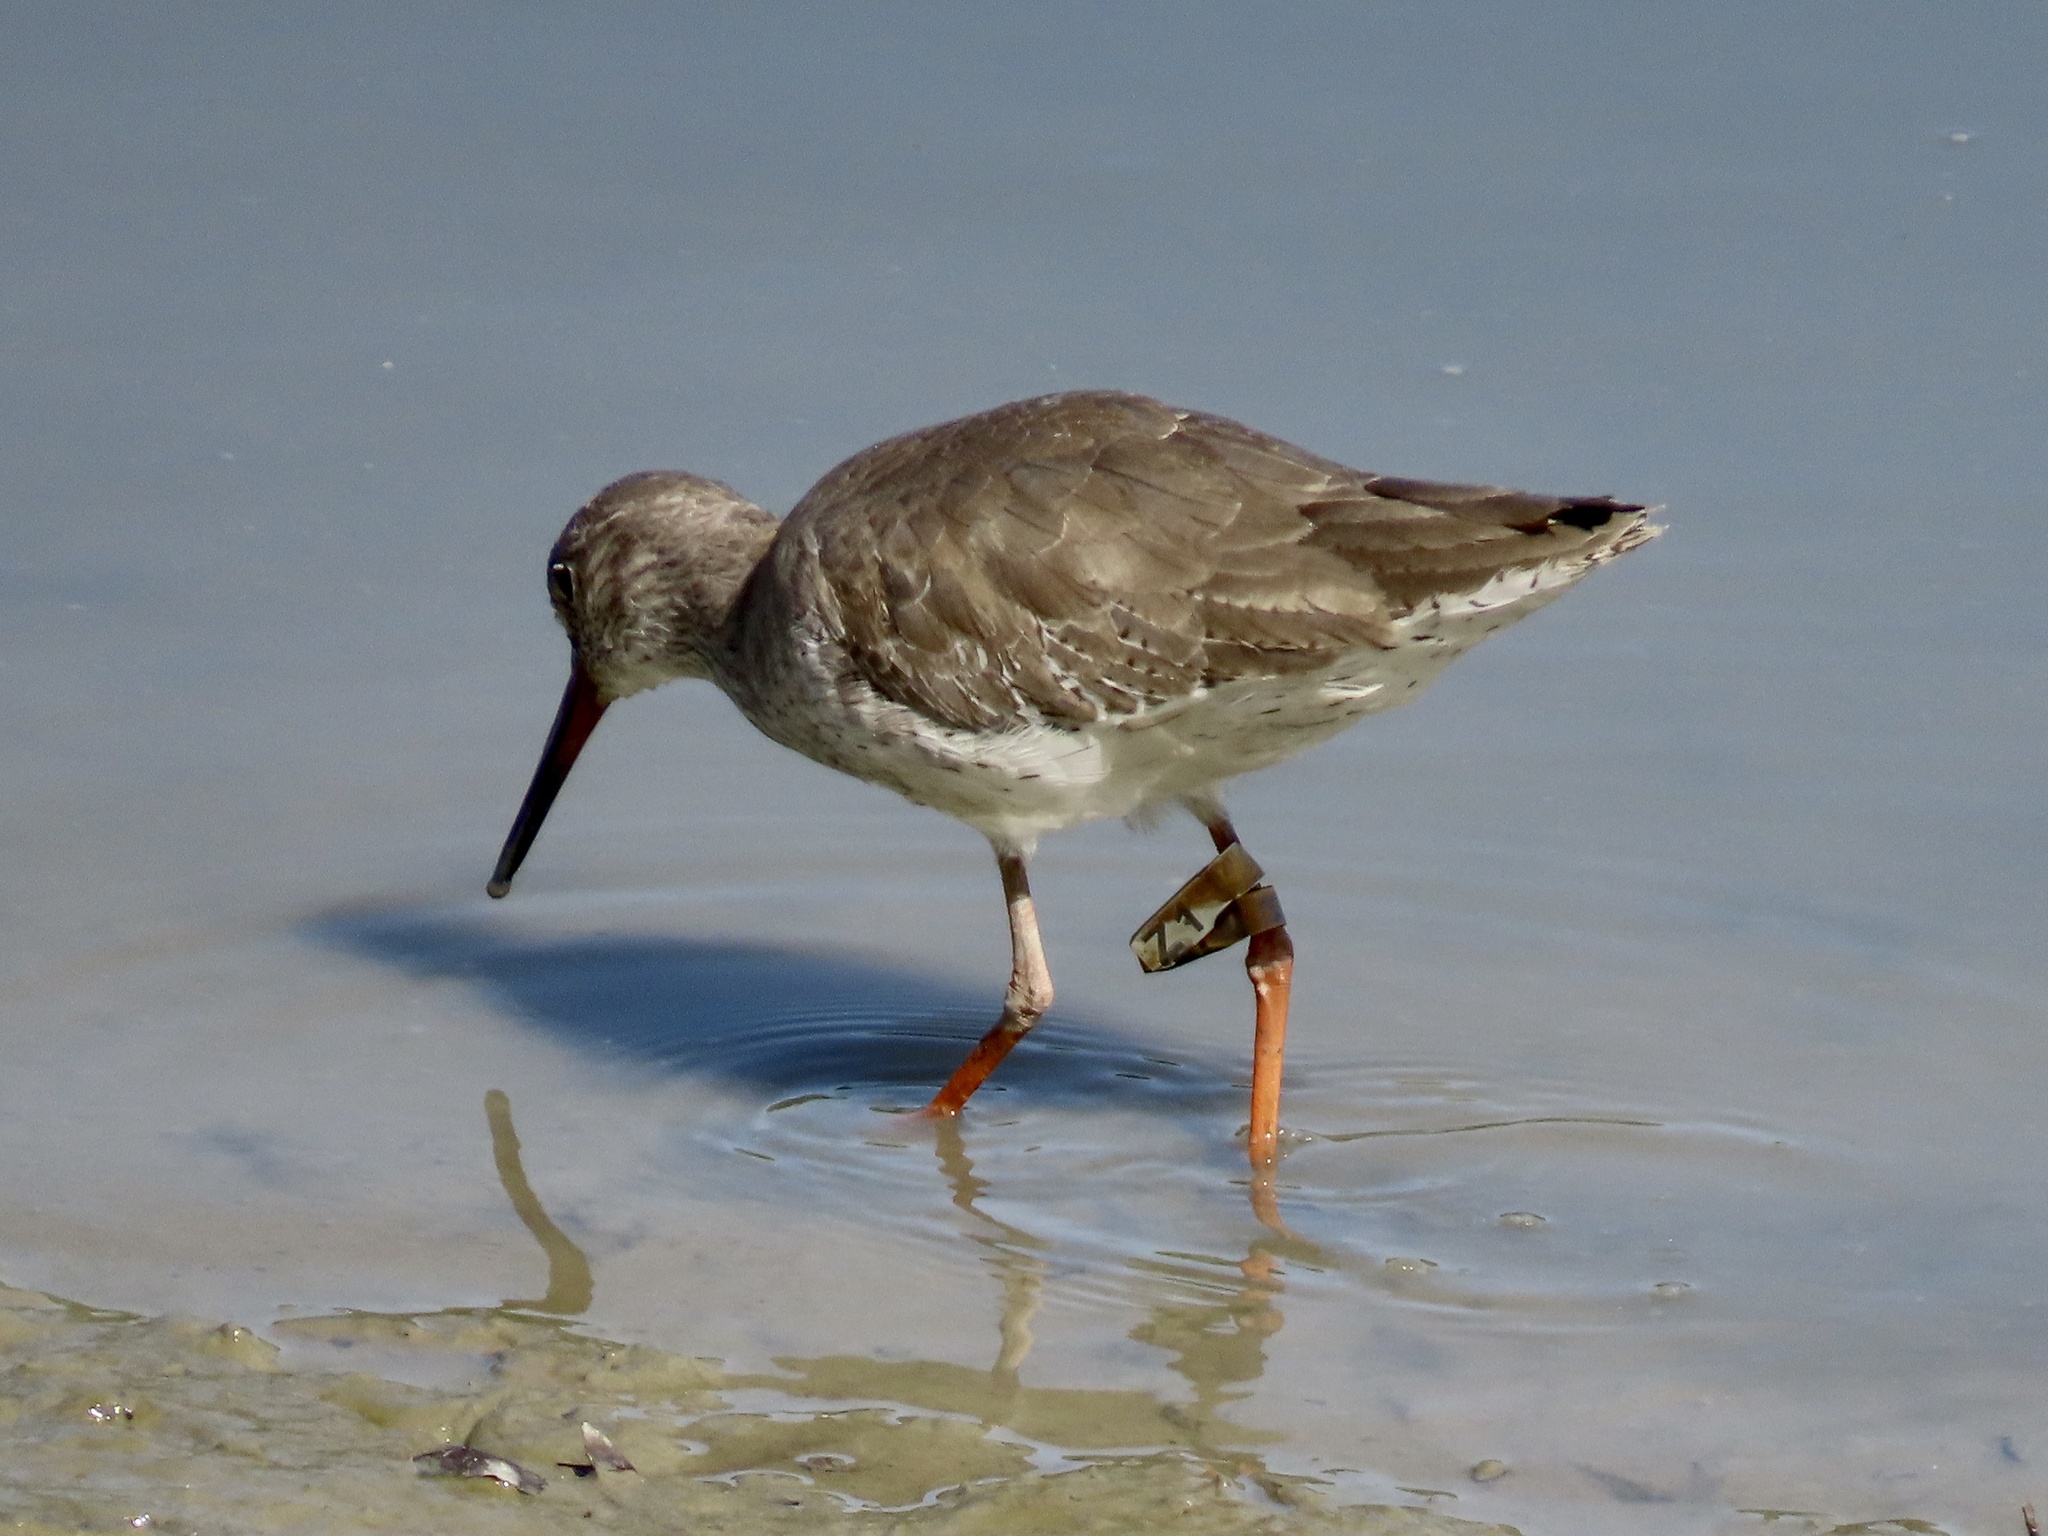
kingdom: Animalia
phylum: Chordata
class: Aves
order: Charadriiformes
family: Scolopacidae
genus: Tringa
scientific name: Tringa totanus
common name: Common redshank
